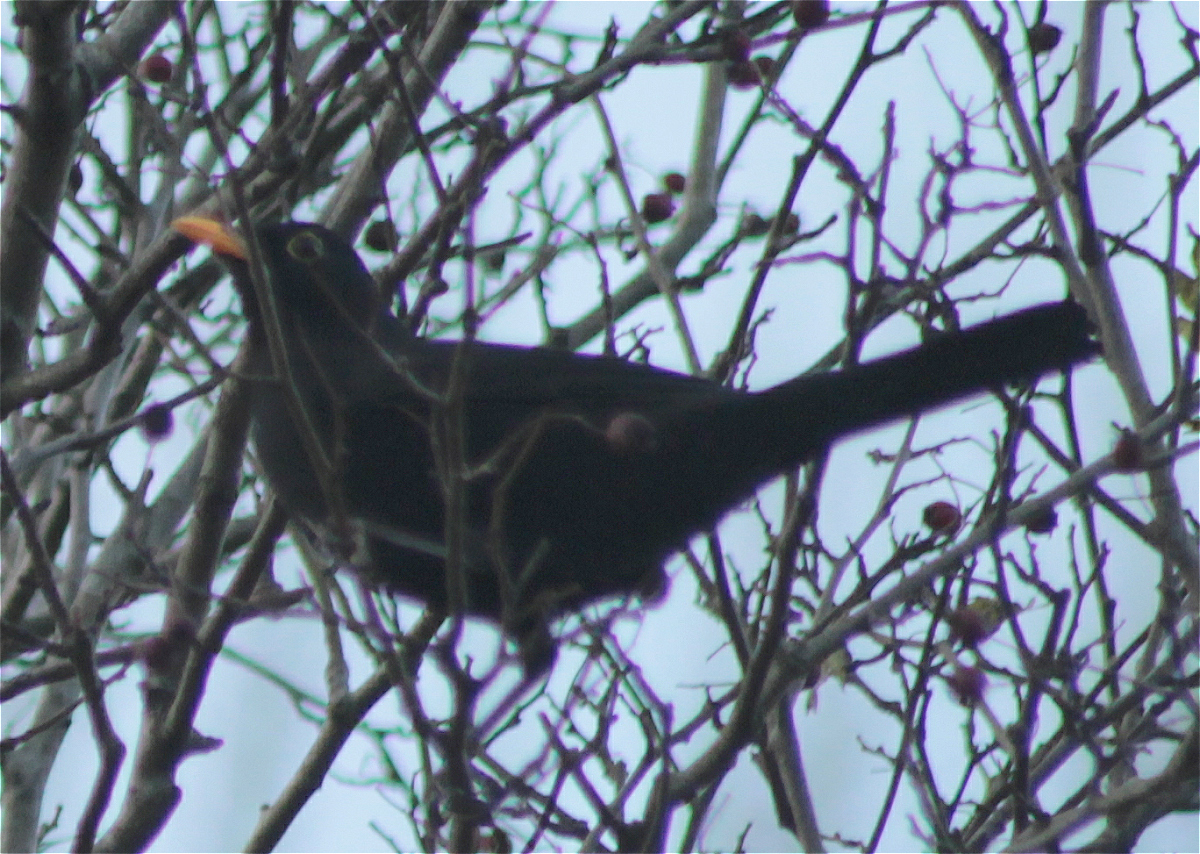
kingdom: Animalia
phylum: Chordata
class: Aves
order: Passeriformes
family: Turdidae
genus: Turdus
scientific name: Turdus merula
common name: Common blackbird
